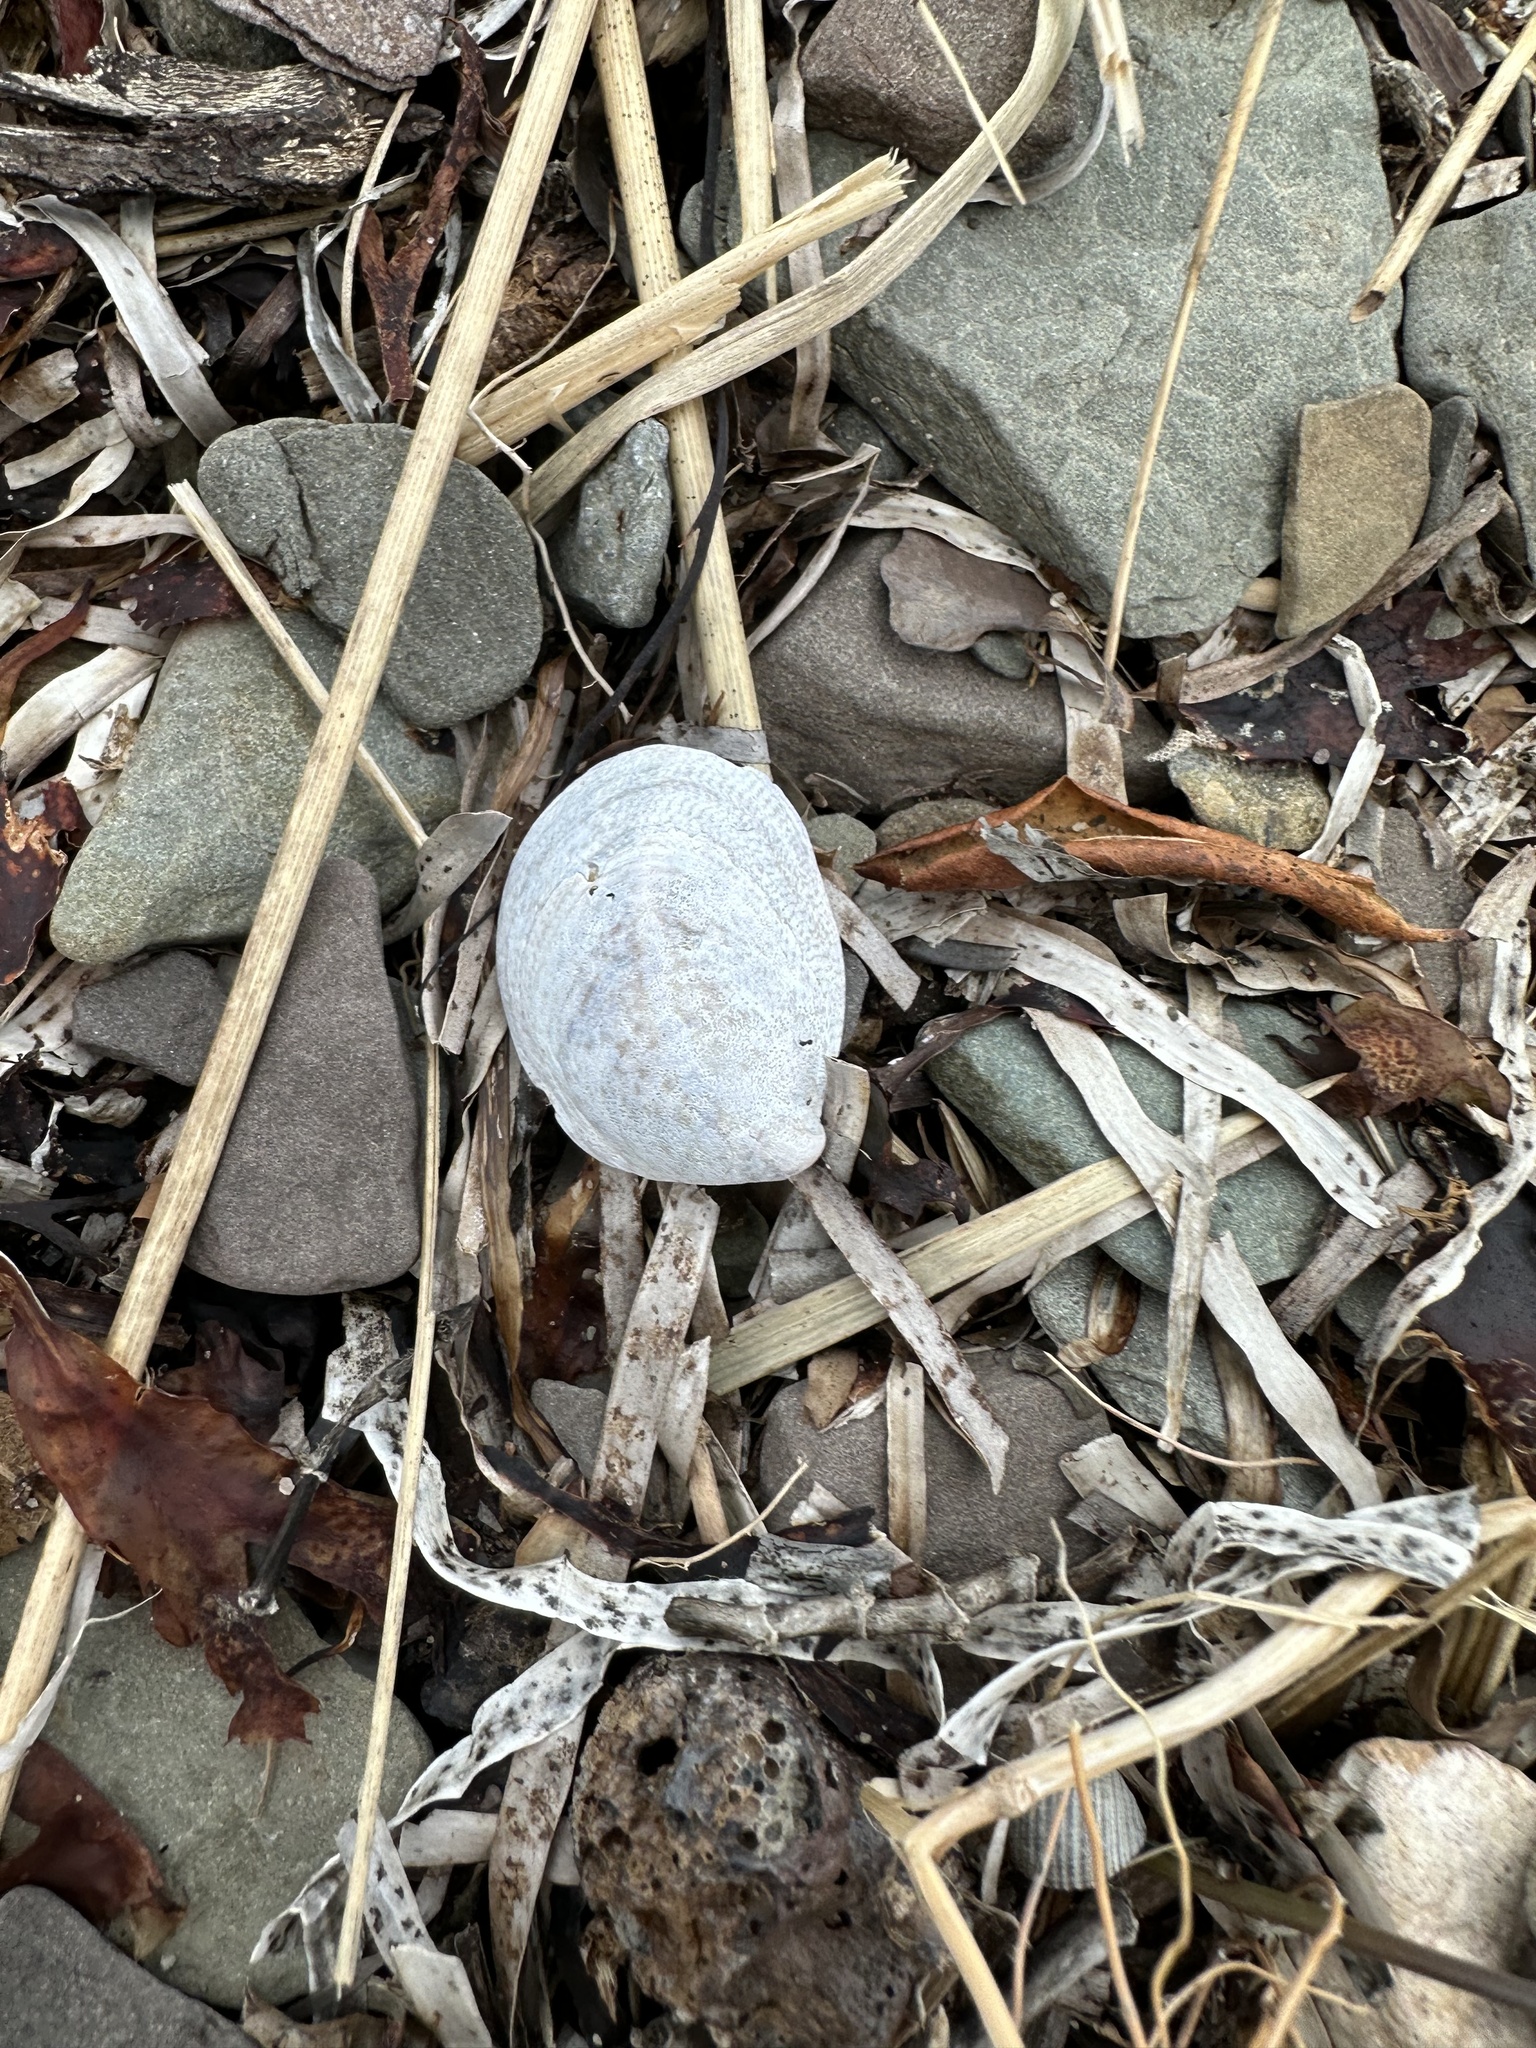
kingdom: Animalia
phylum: Mollusca
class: Gastropoda
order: Littorinimorpha
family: Calyptraeidae
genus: Crepidula
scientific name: Crepidula fornicata
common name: Slipper limpet
